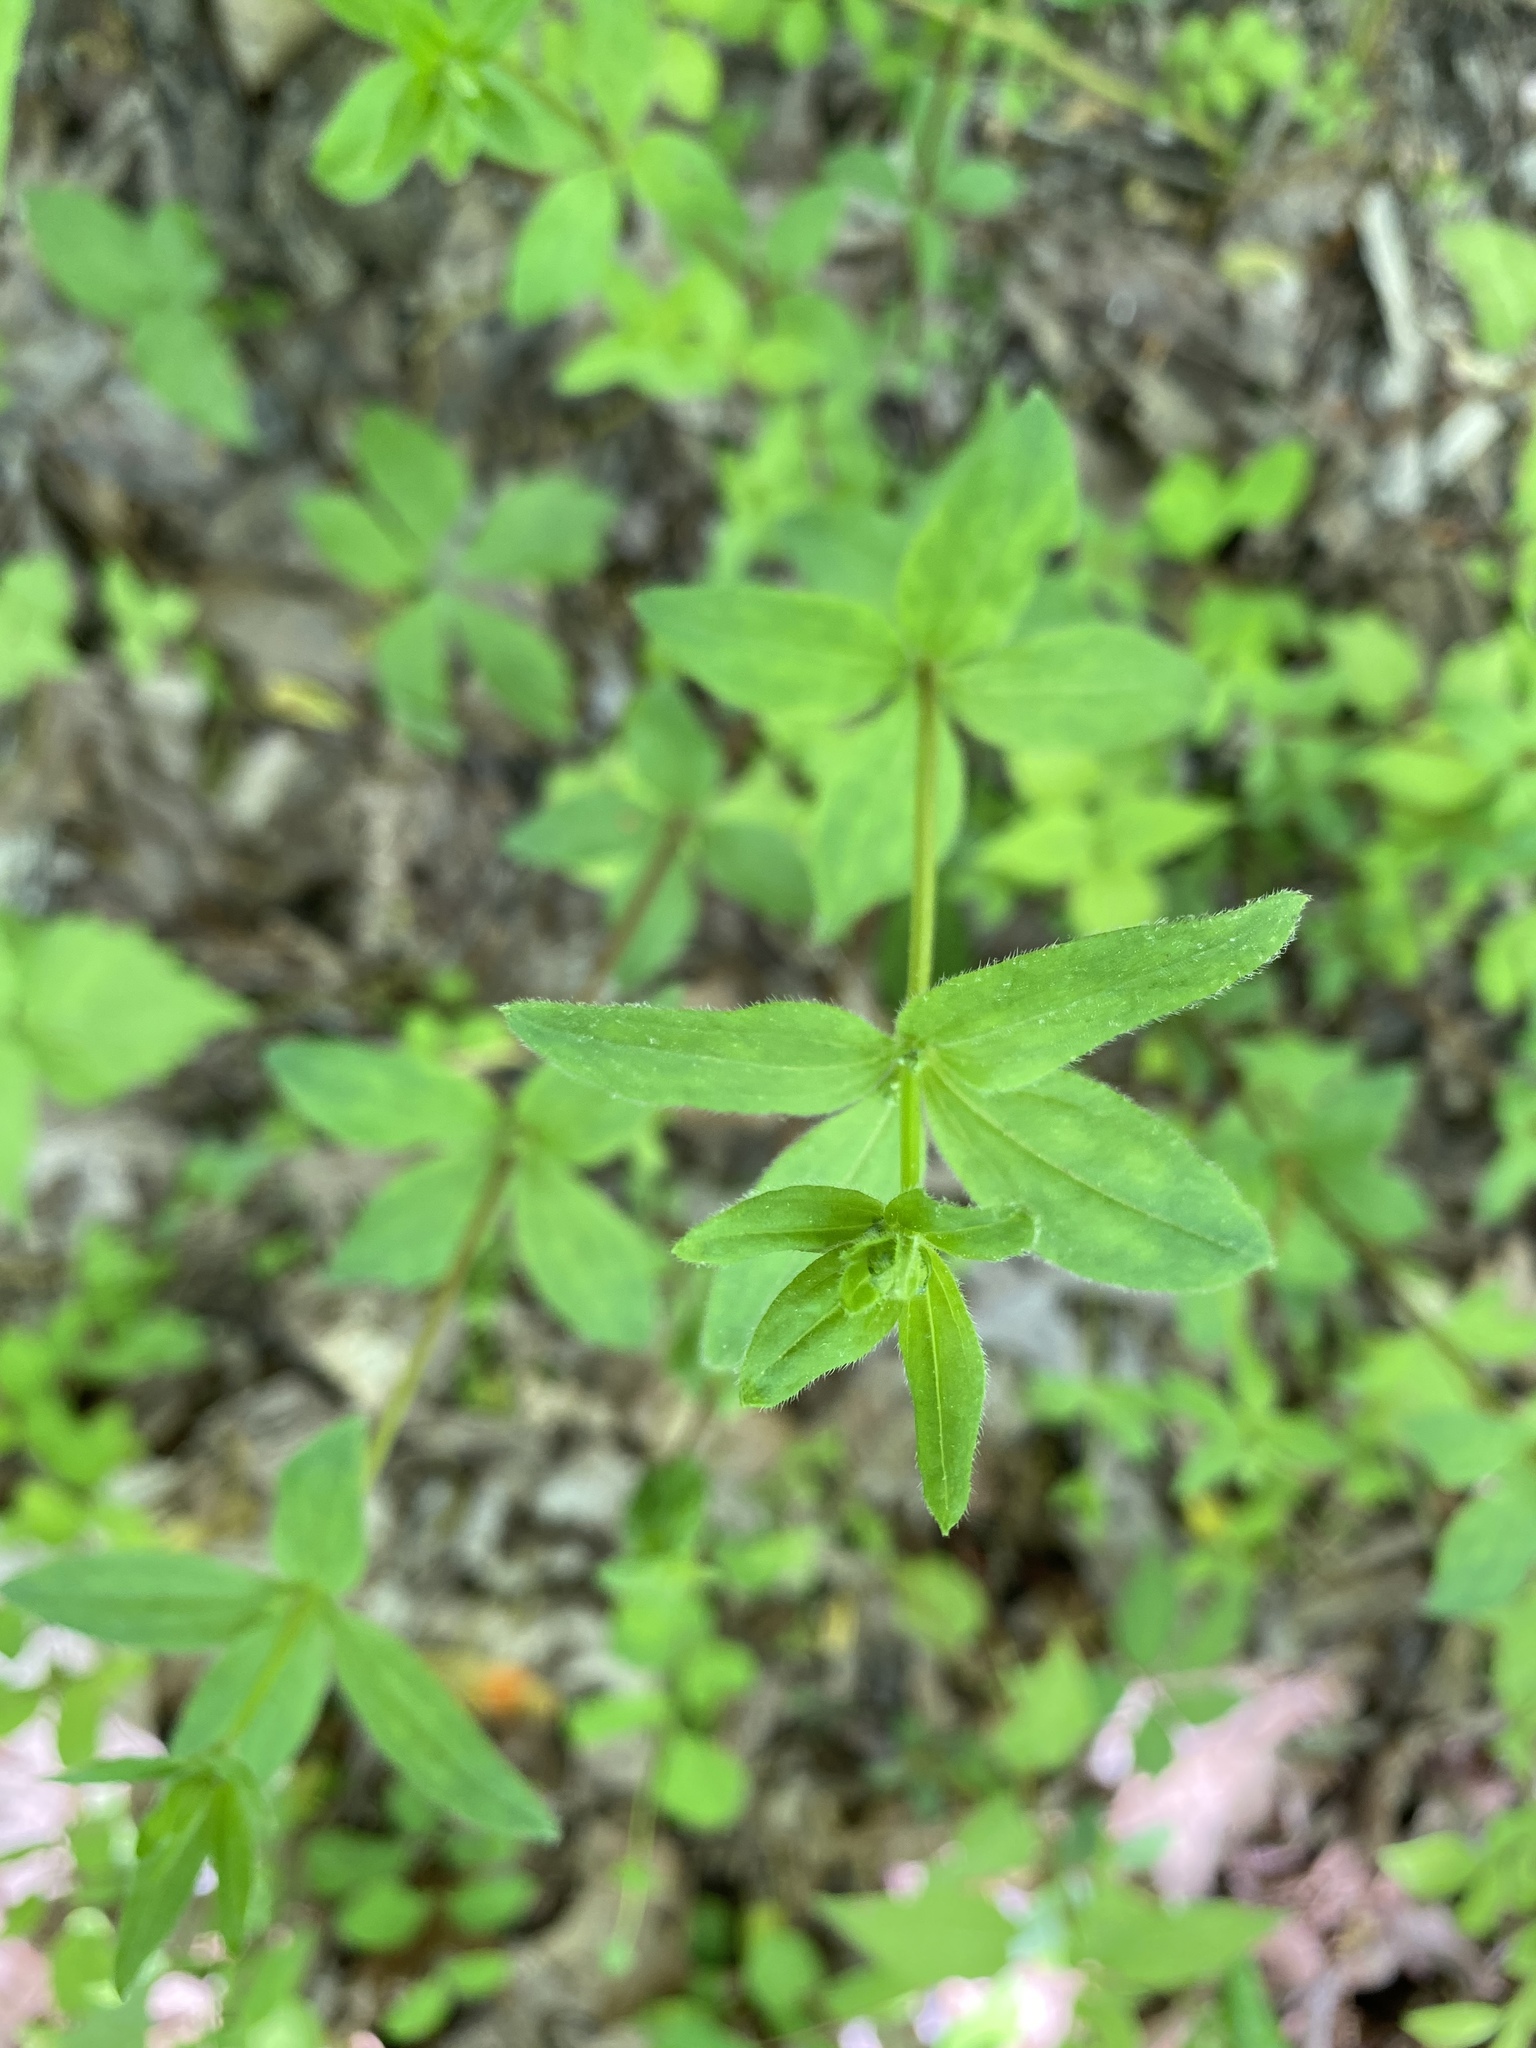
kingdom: Plantae
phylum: Tracheophyta
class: Magnoliopsida
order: Gentianales
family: Rubiaceae
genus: Galium
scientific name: Galium circaezans
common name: Forest bedstraw
